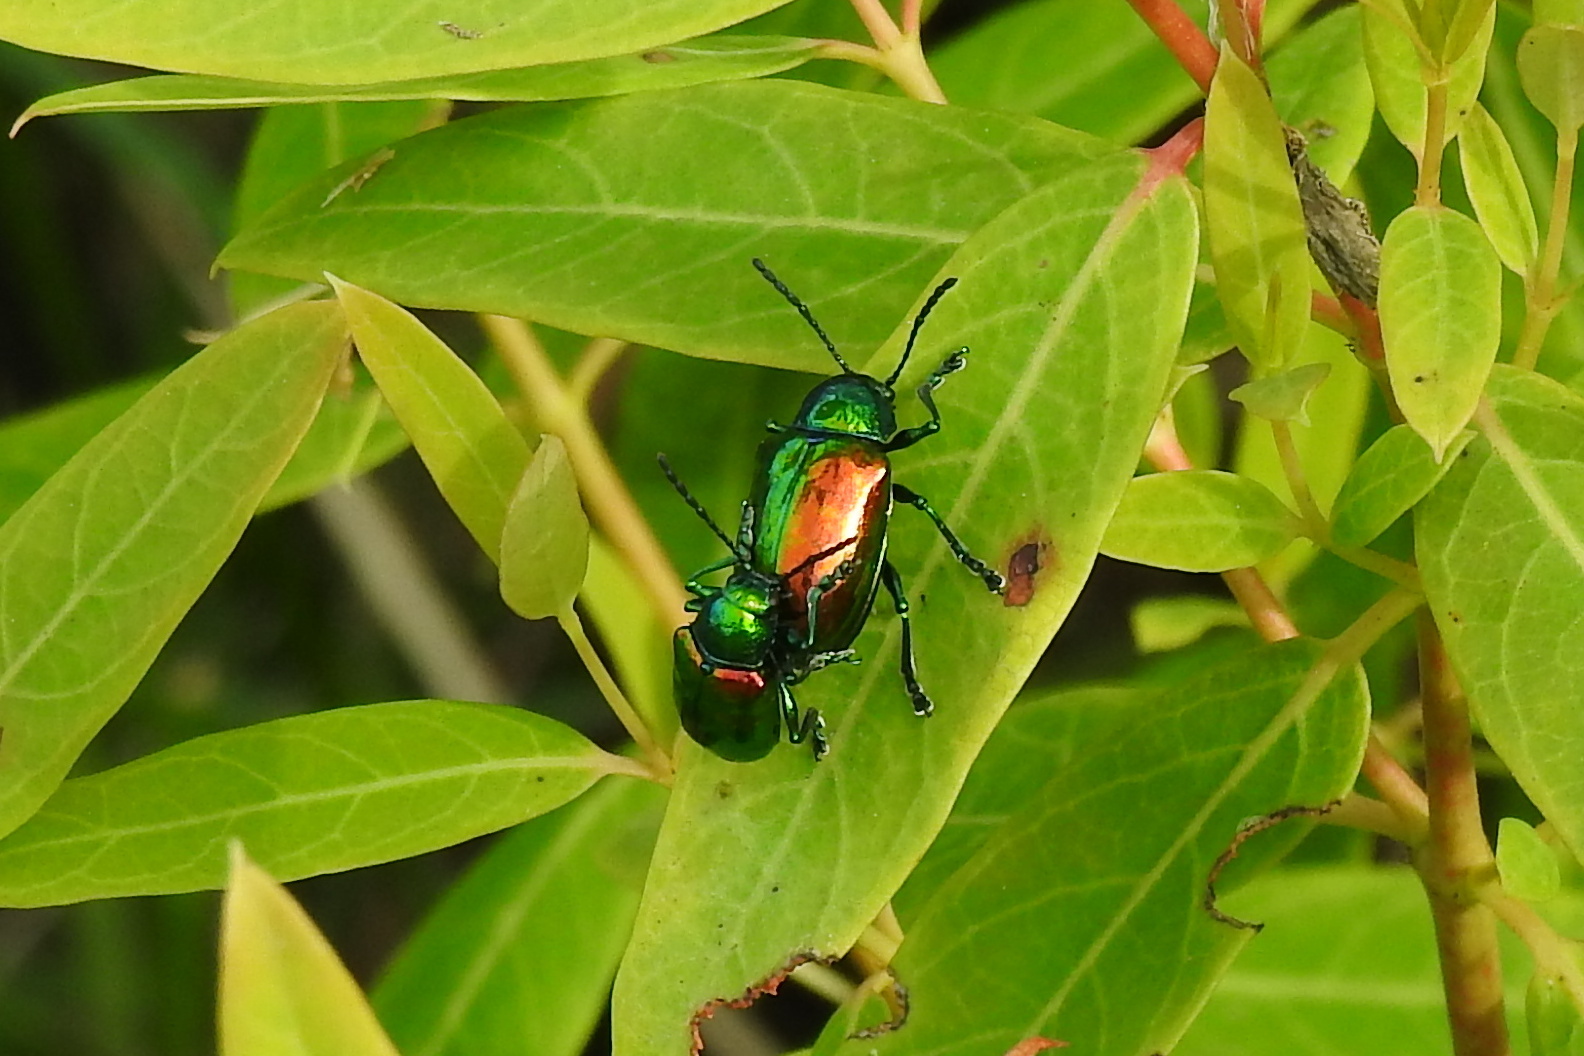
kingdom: Animalia
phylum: Arthropoda
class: Insecta
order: Coleoptera
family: Chrysomelidae
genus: Chrysochus
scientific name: Chrysochus auratus
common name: Dogbane leaf beetle
